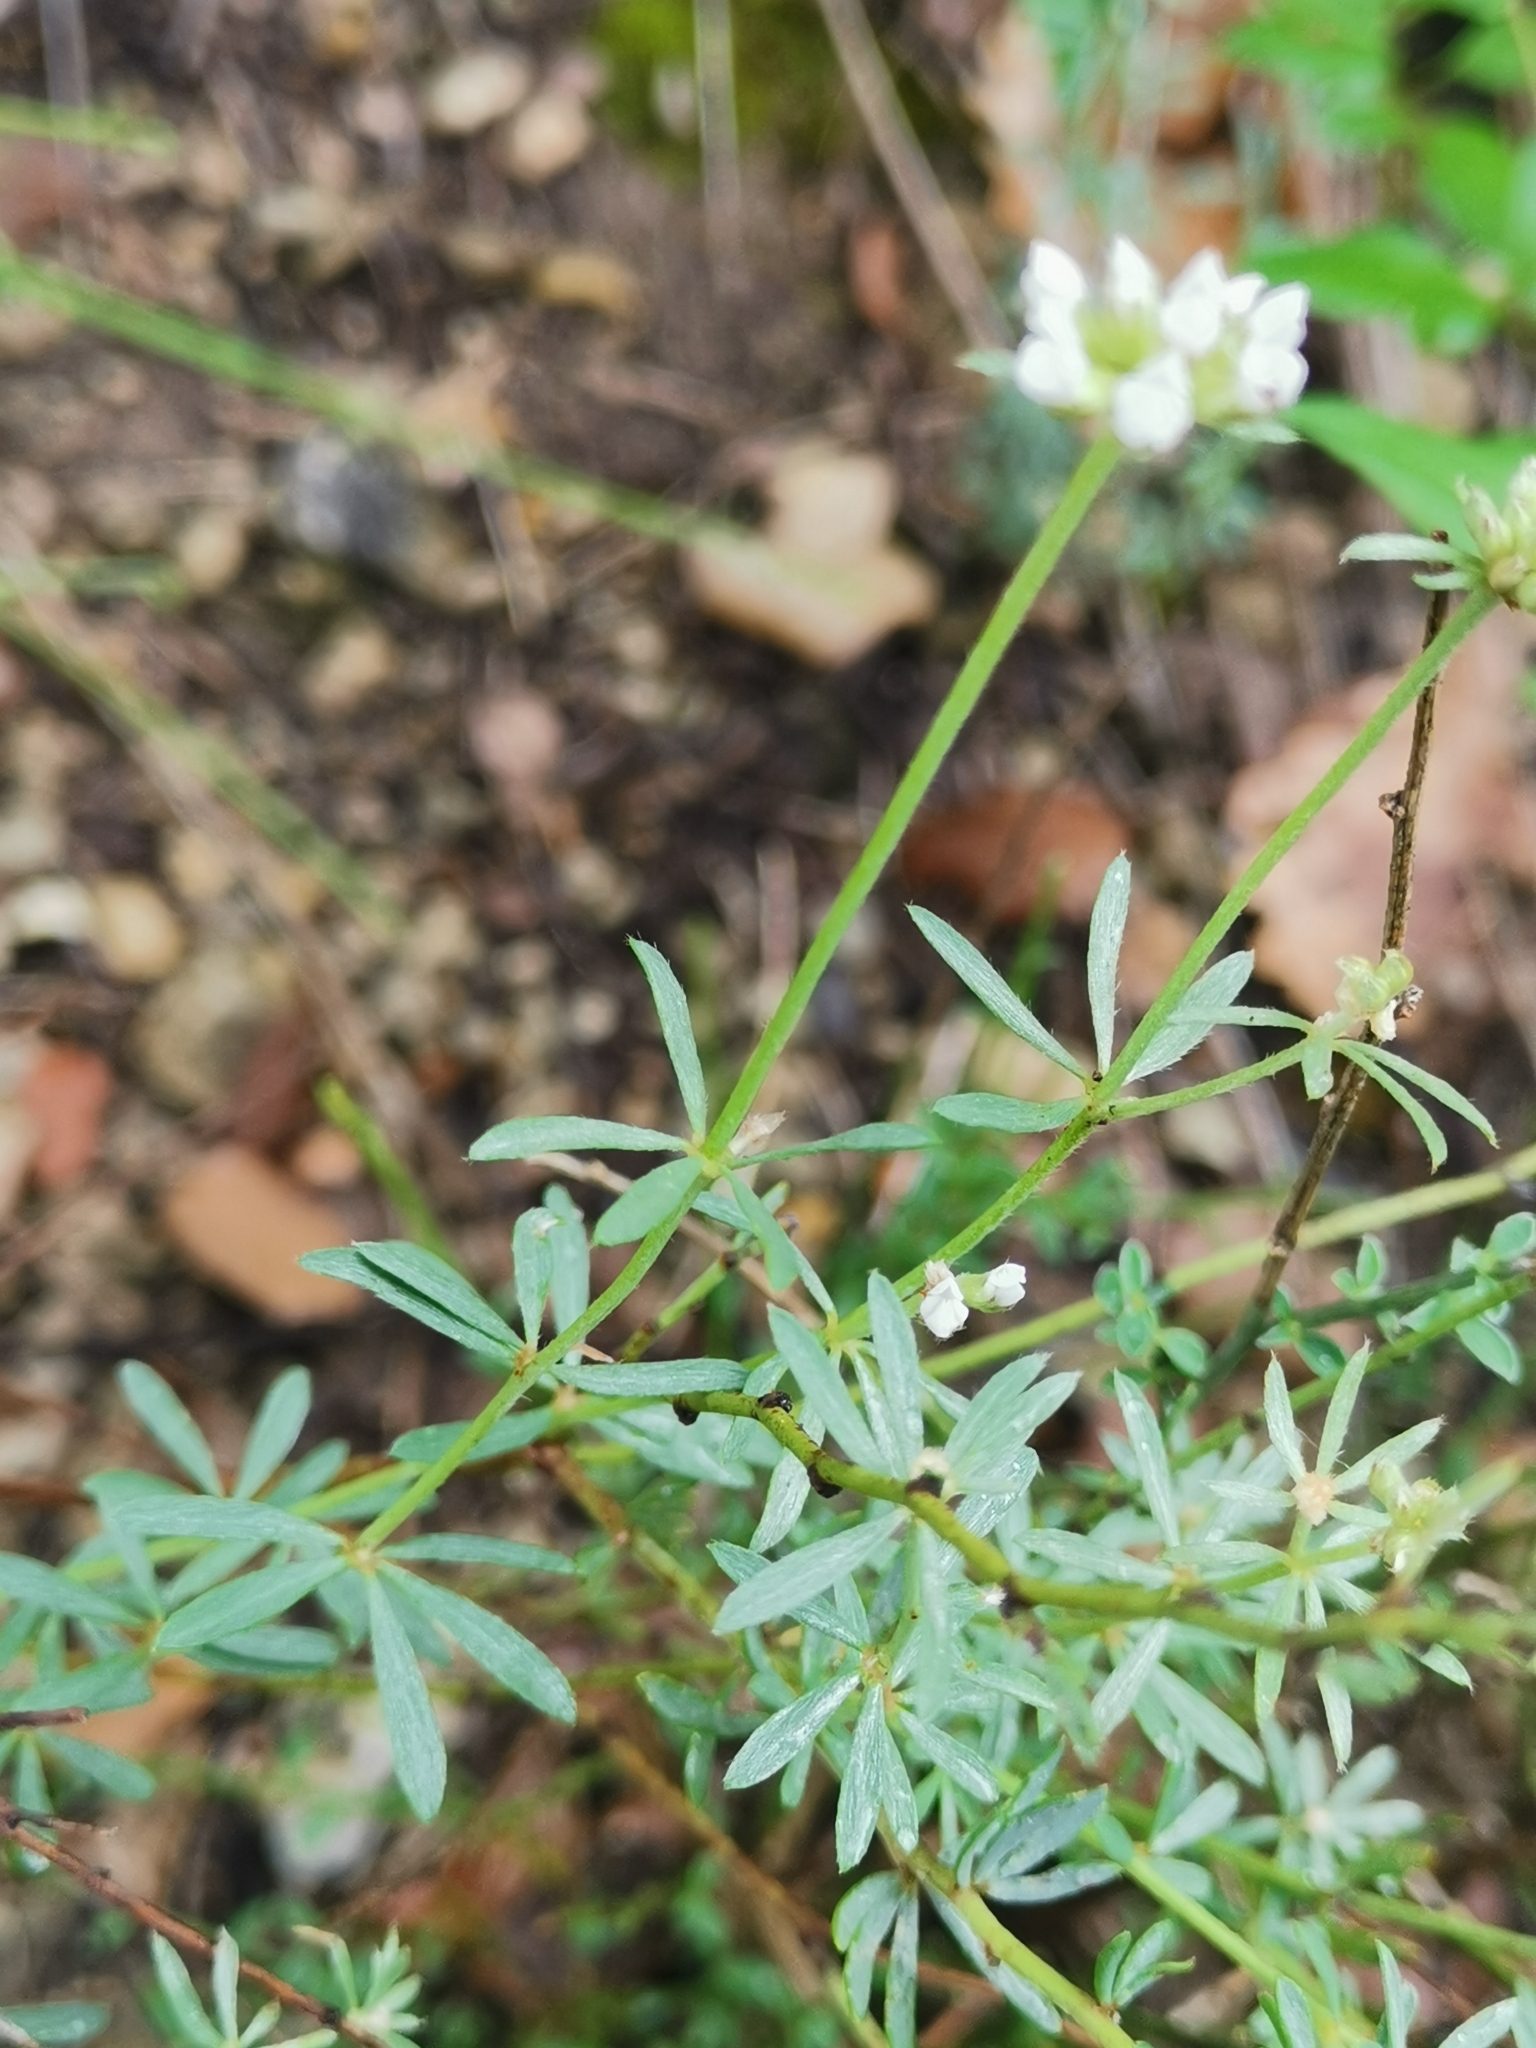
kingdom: Plantae
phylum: Tracheophyta
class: Magnoliopsida
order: Fabales
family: Fabaceae
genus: Lotus
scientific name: Lotus dorycnium
